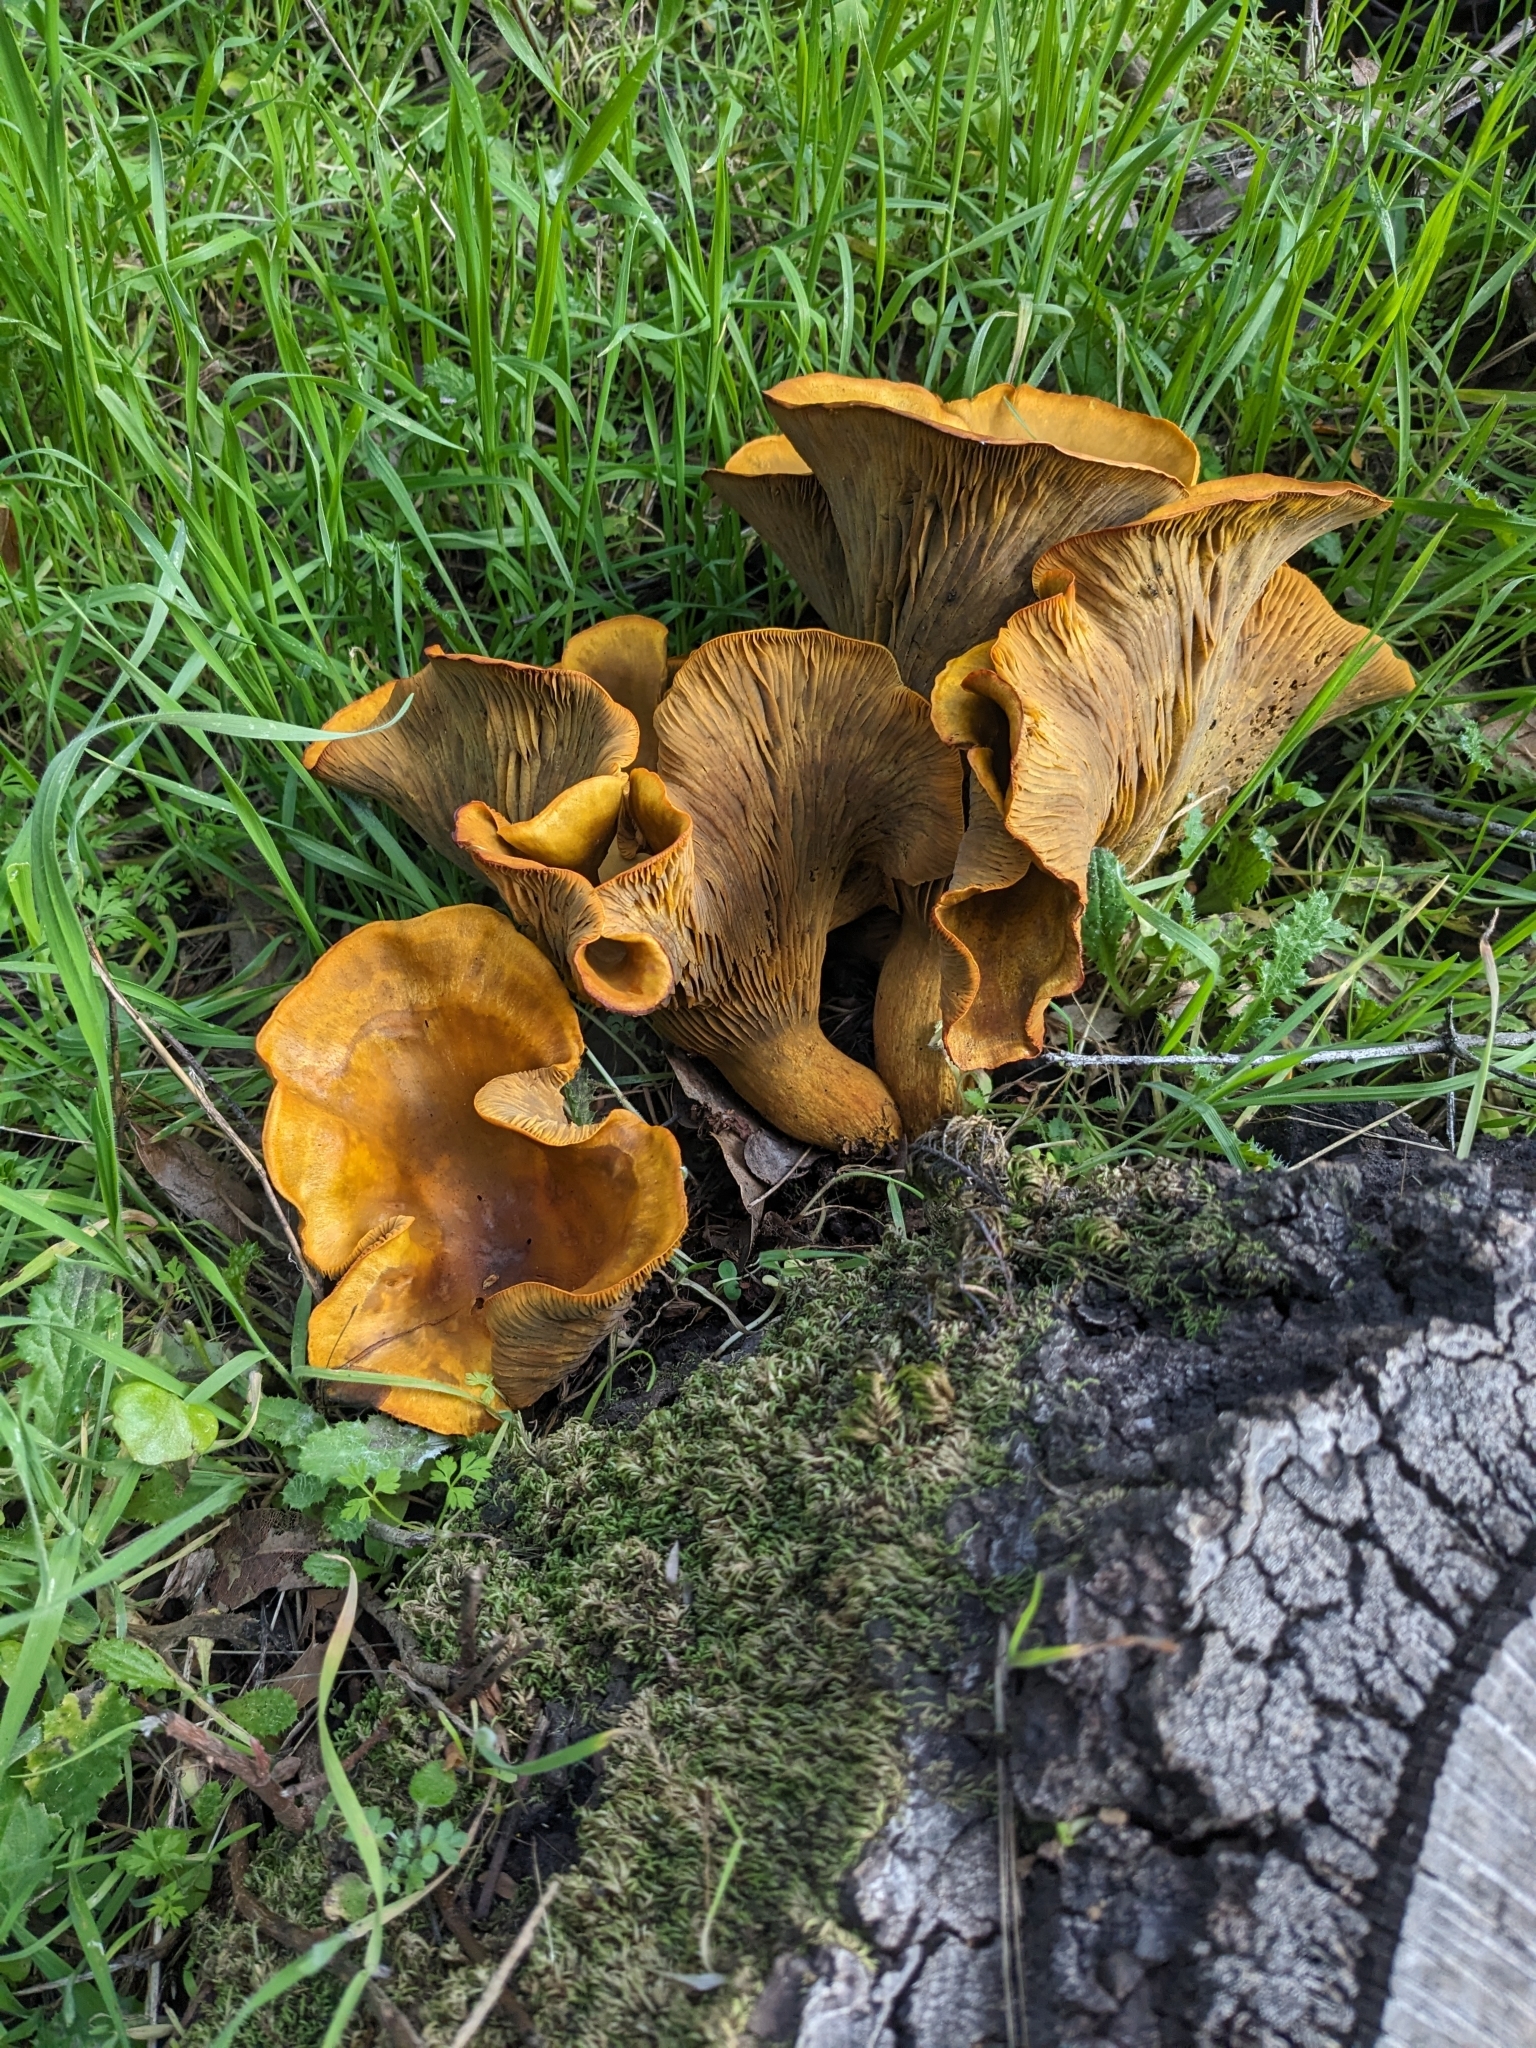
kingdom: Fungi
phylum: Basidiomycota
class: Agaricomycetes
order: Agaricales
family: Omphalotaceae
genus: Omphalotus
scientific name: Omphalotus olivascens
